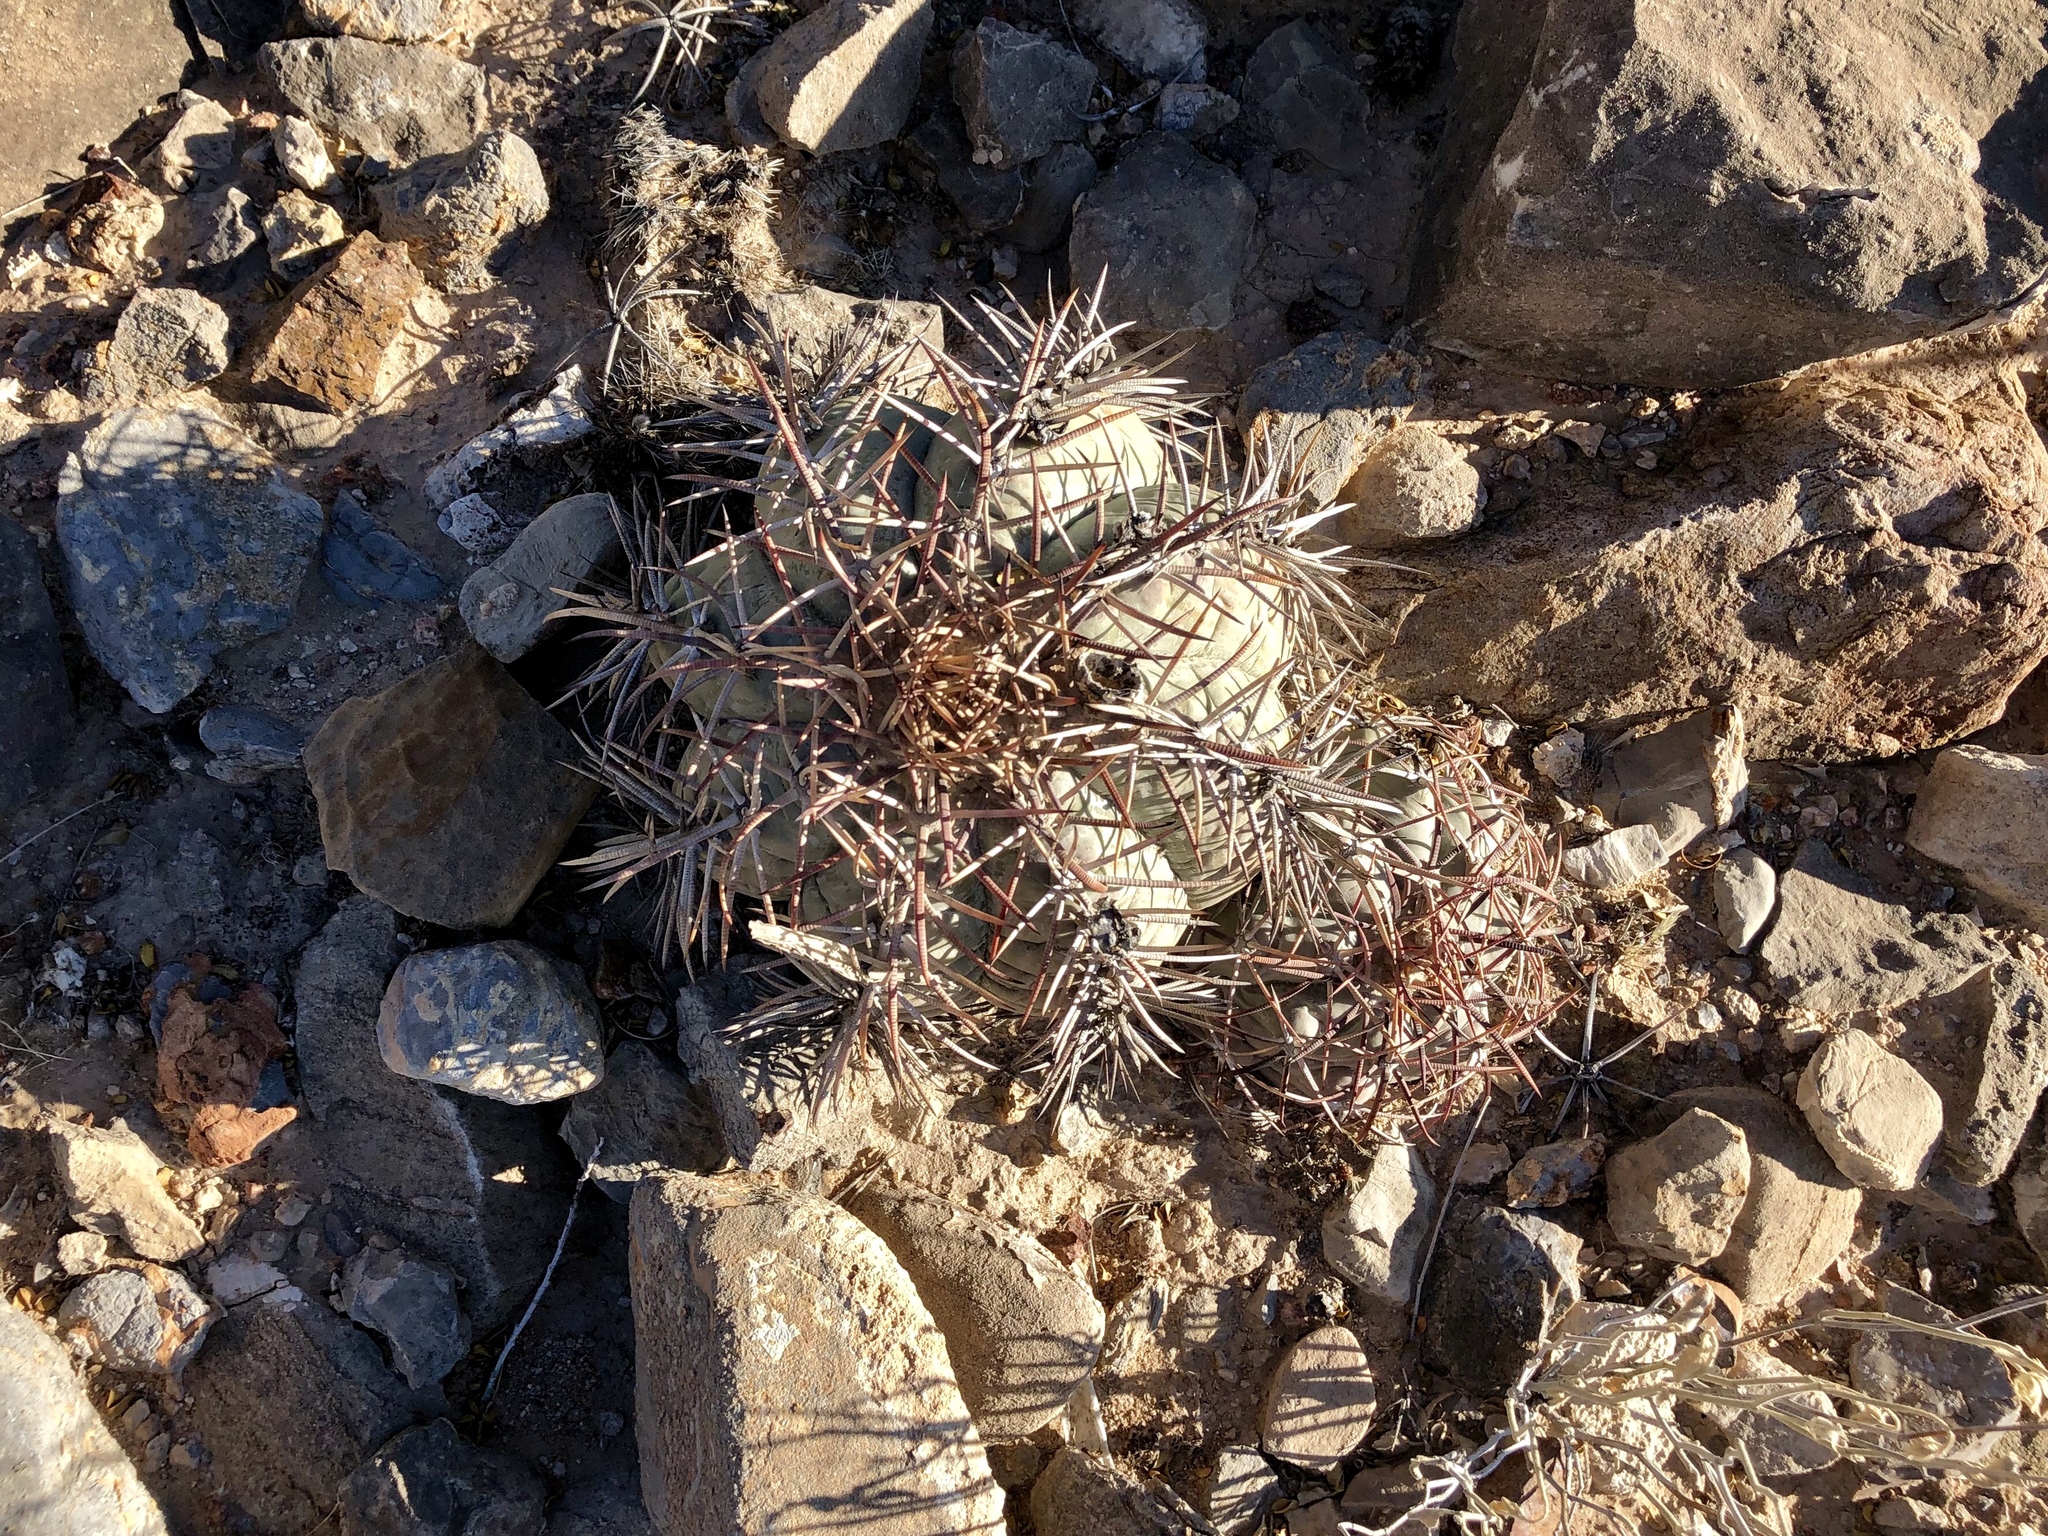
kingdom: Plantae
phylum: Tracheophyta
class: Magnoliopsida
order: Caryophyllales
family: Cactaceae
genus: Echinocactus
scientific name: Echinocactus horizonthalonius
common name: Devilshead
